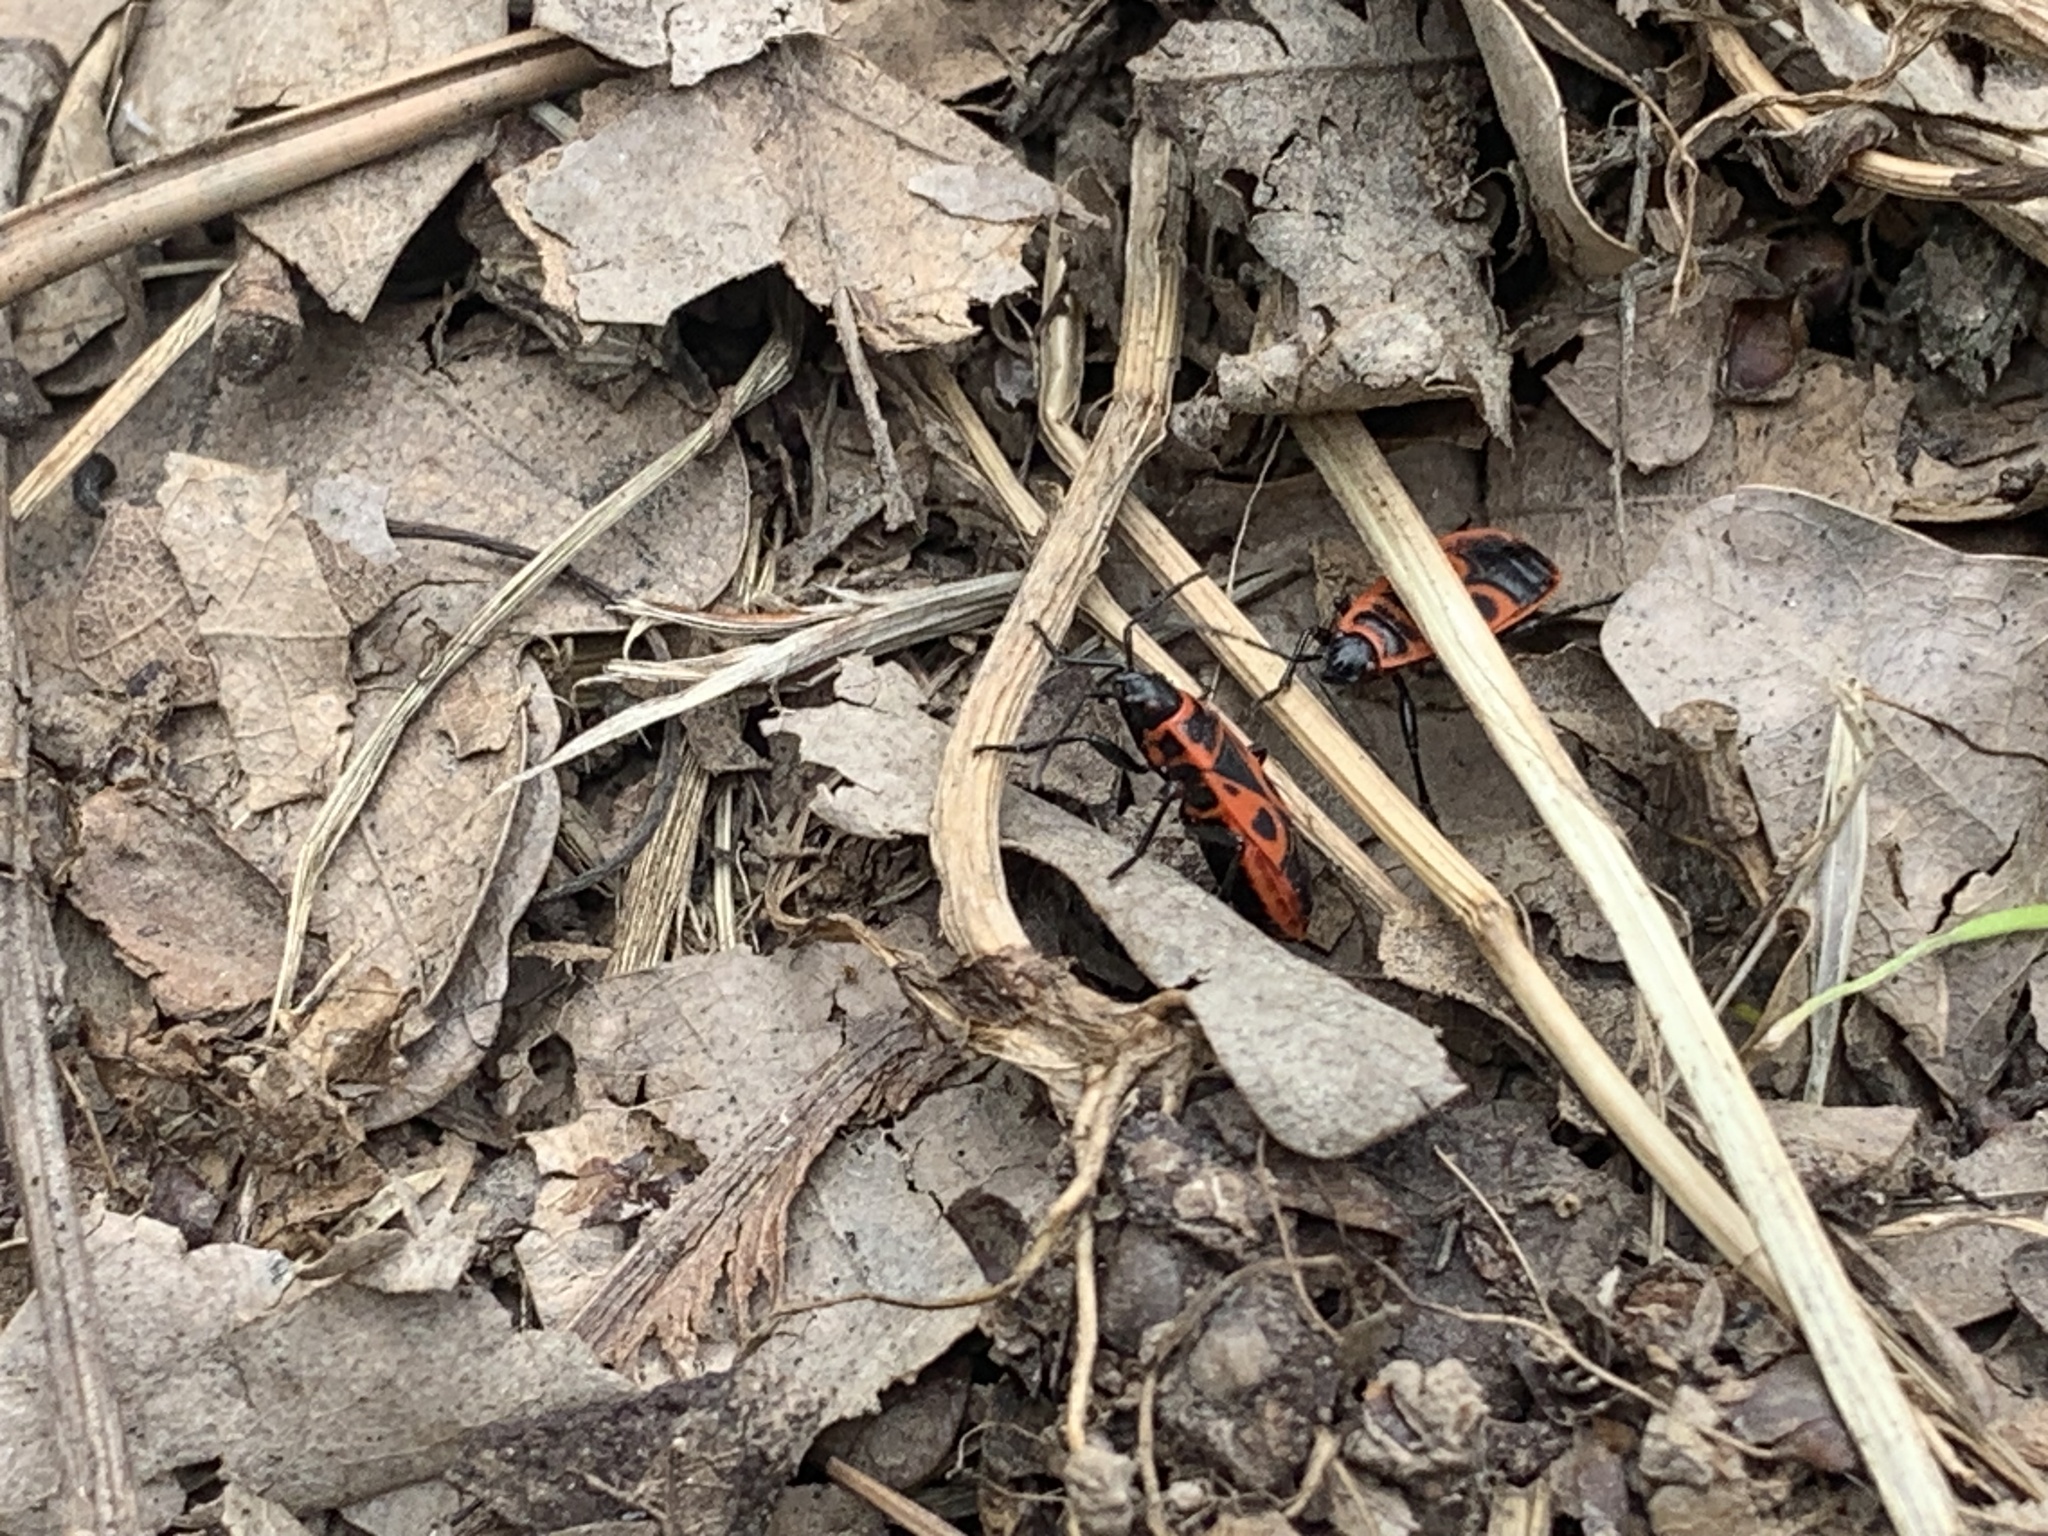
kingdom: Animalia
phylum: Arthropoda
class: Insecta
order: Hemiptera
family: Pyrrhocoridae
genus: Pyrrhocoris
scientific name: Pyrrhocoris apterus
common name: Firebug
